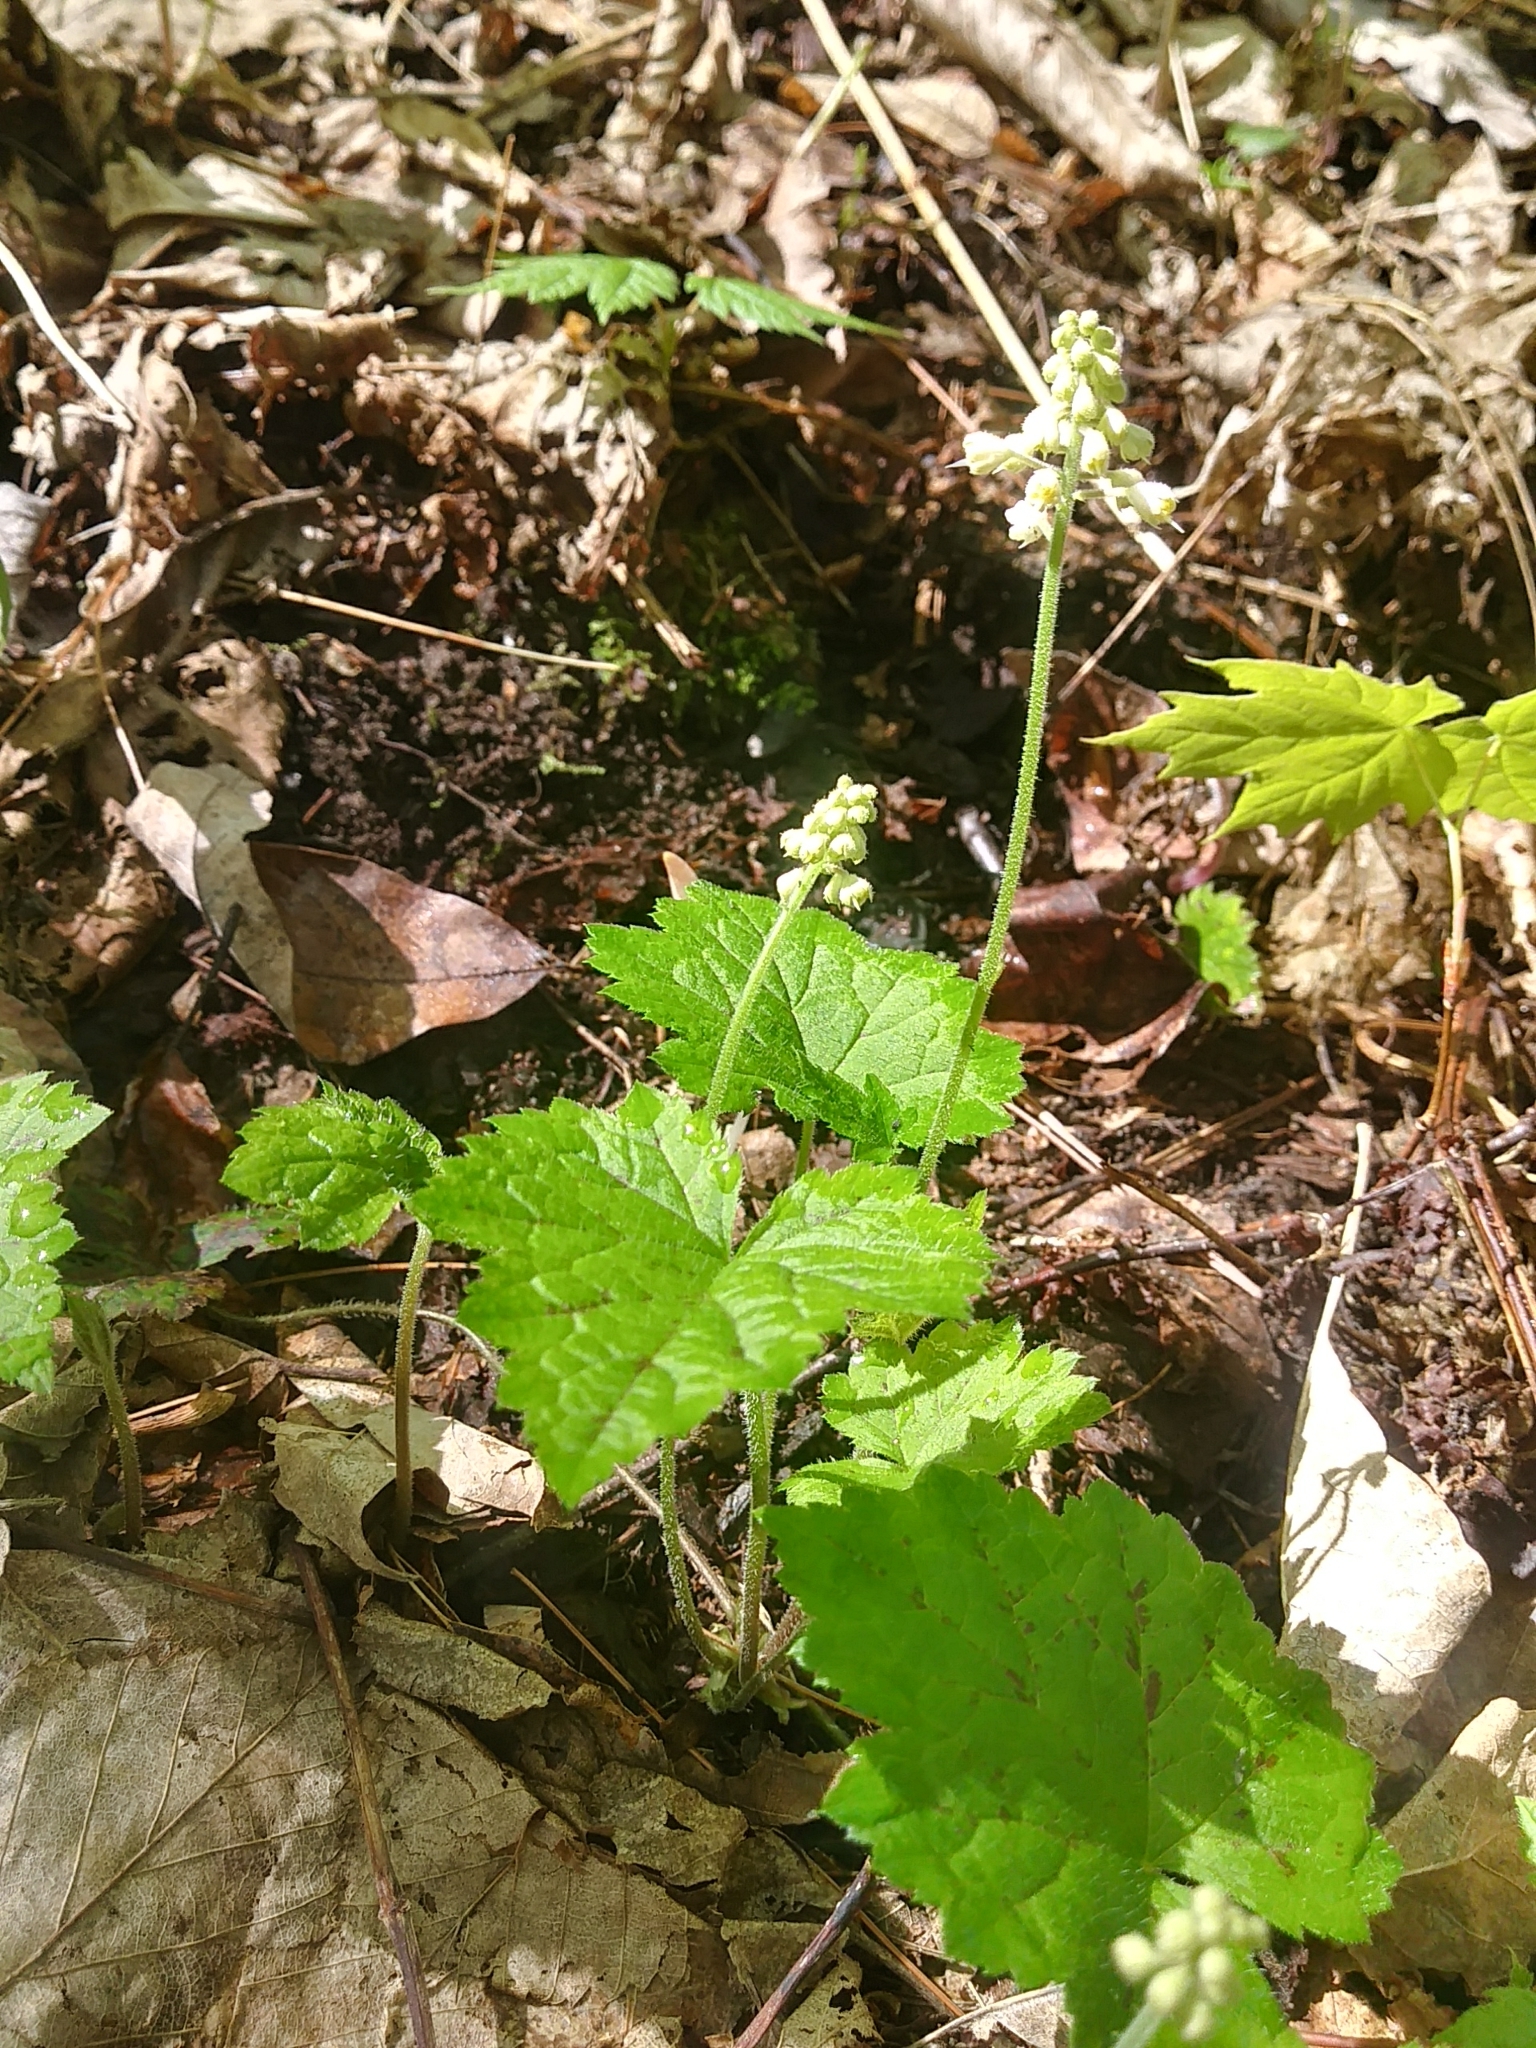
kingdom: Plantae
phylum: Tracheophyta
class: Magnoliopsida
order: Saxifragales
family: Saxifragaceae
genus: Tiarella
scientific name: Tiarella stolonifera
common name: Stoloniferous foamflower
